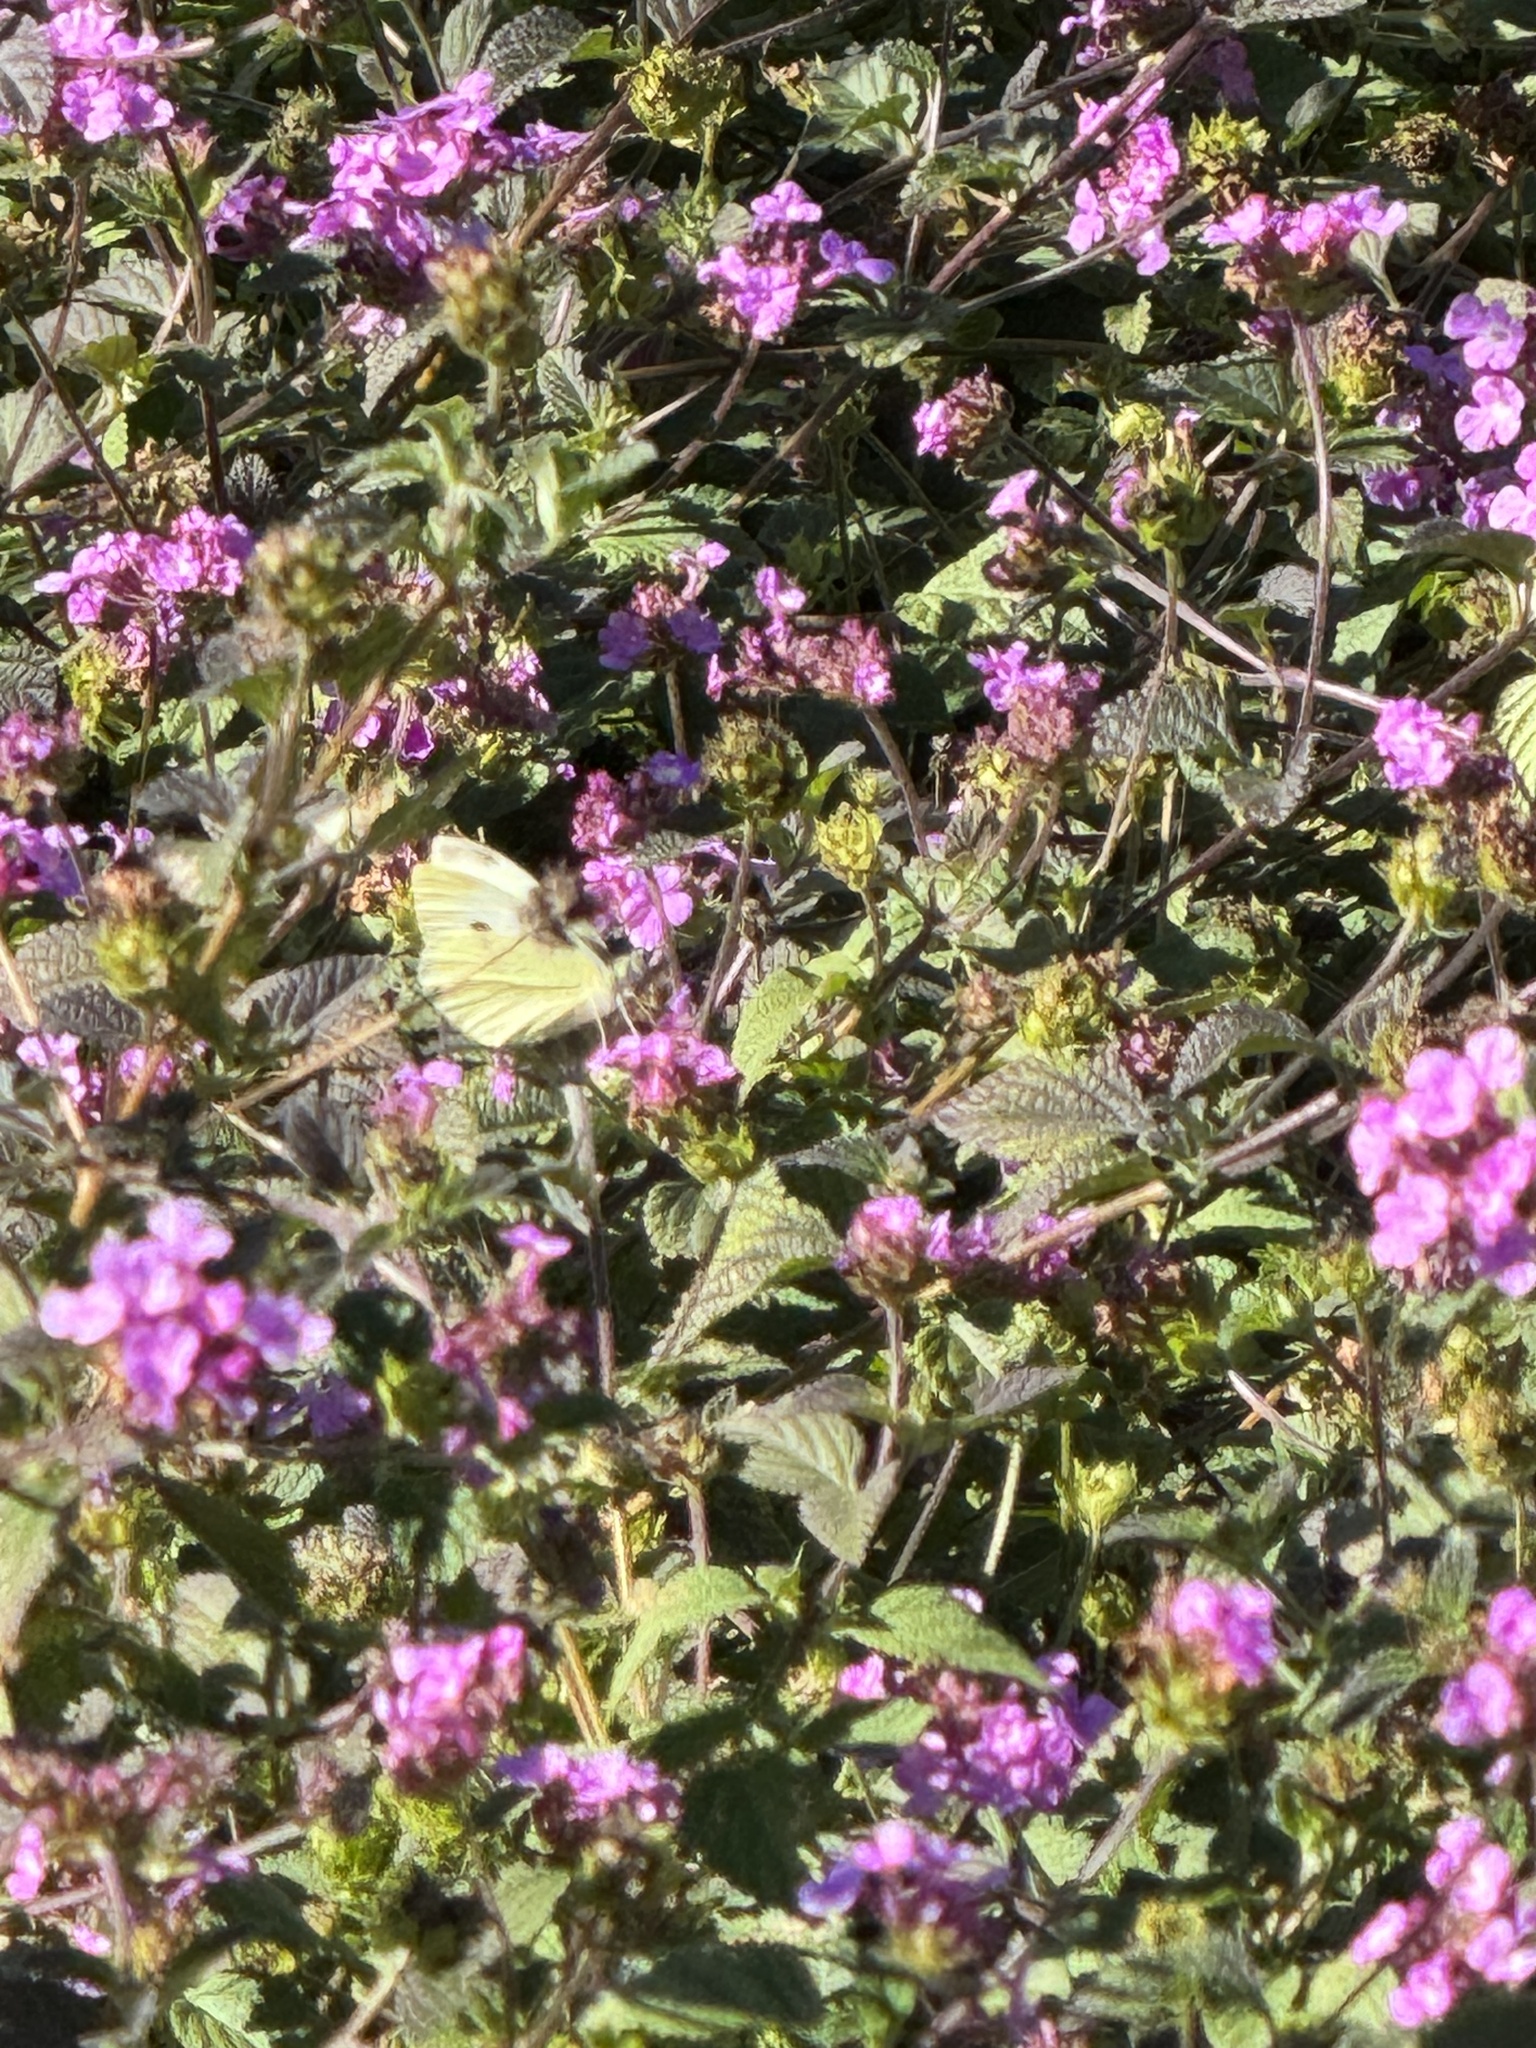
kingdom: Animalia
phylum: Arthropoda
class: Insecta
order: Lepidoptera
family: Pieridae
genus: Pieris
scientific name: Pieris rapae
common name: Small white
